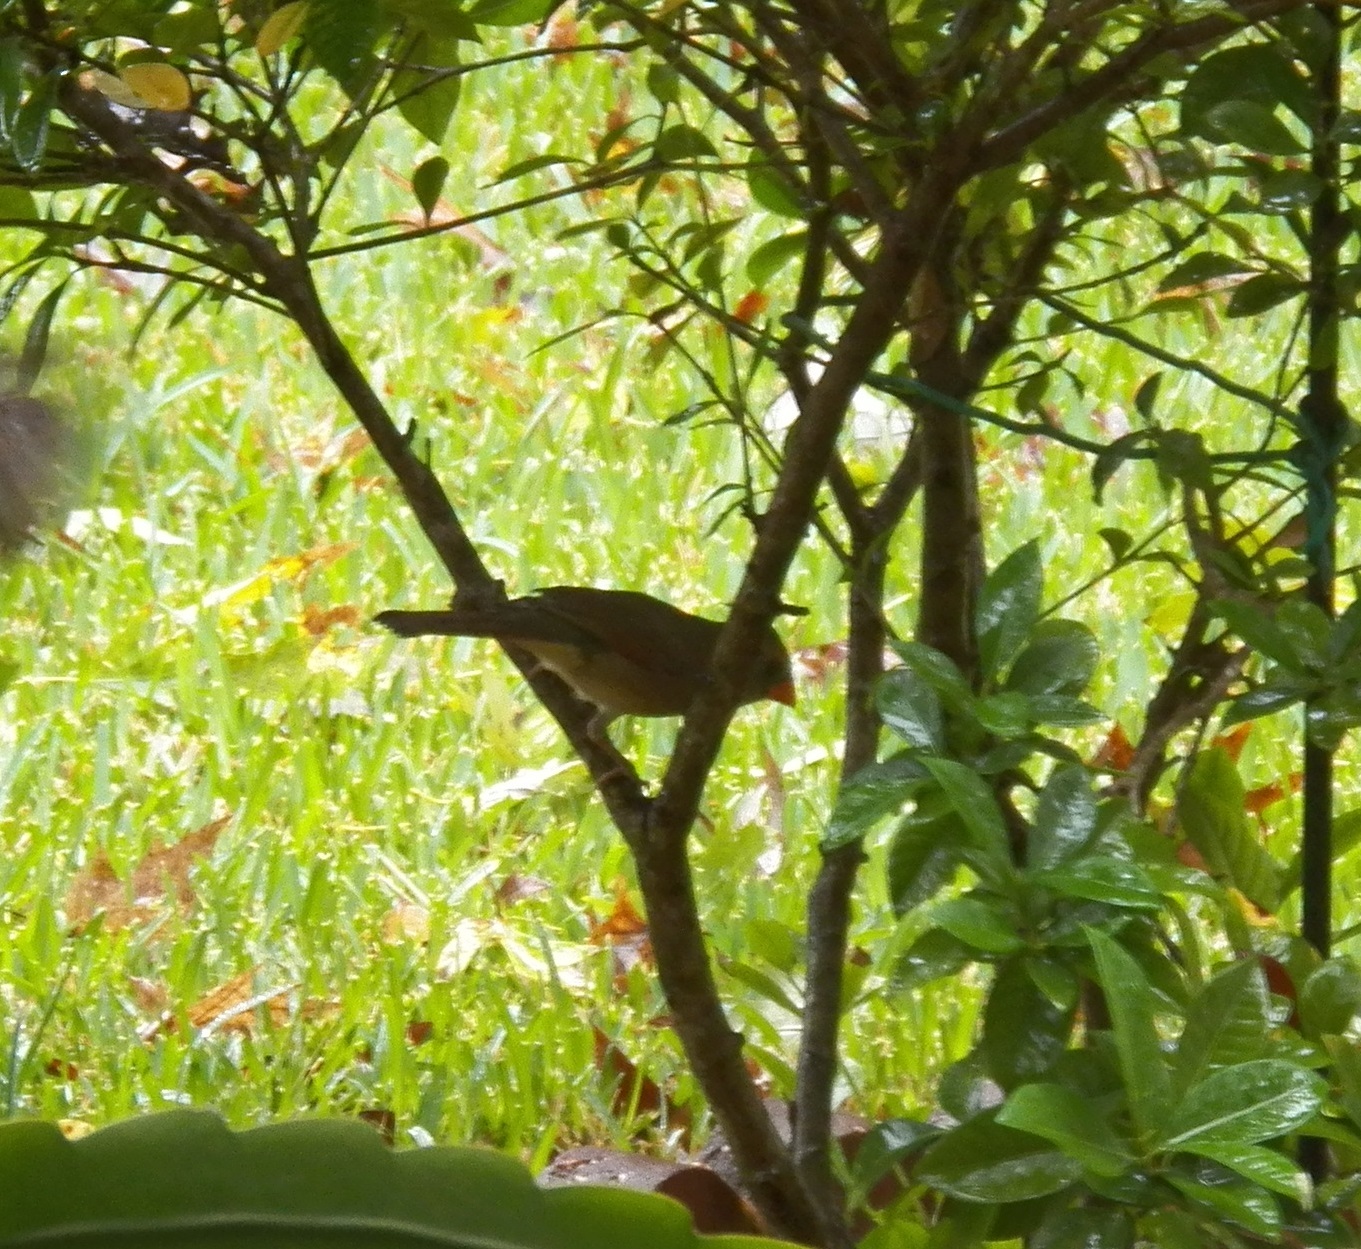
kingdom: Animalia
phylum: Chordata
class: Aves
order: Passeriformes
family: Cardinalidae
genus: Cardinalis
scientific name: Cardinalis cardinalis
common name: Northern cardinal
